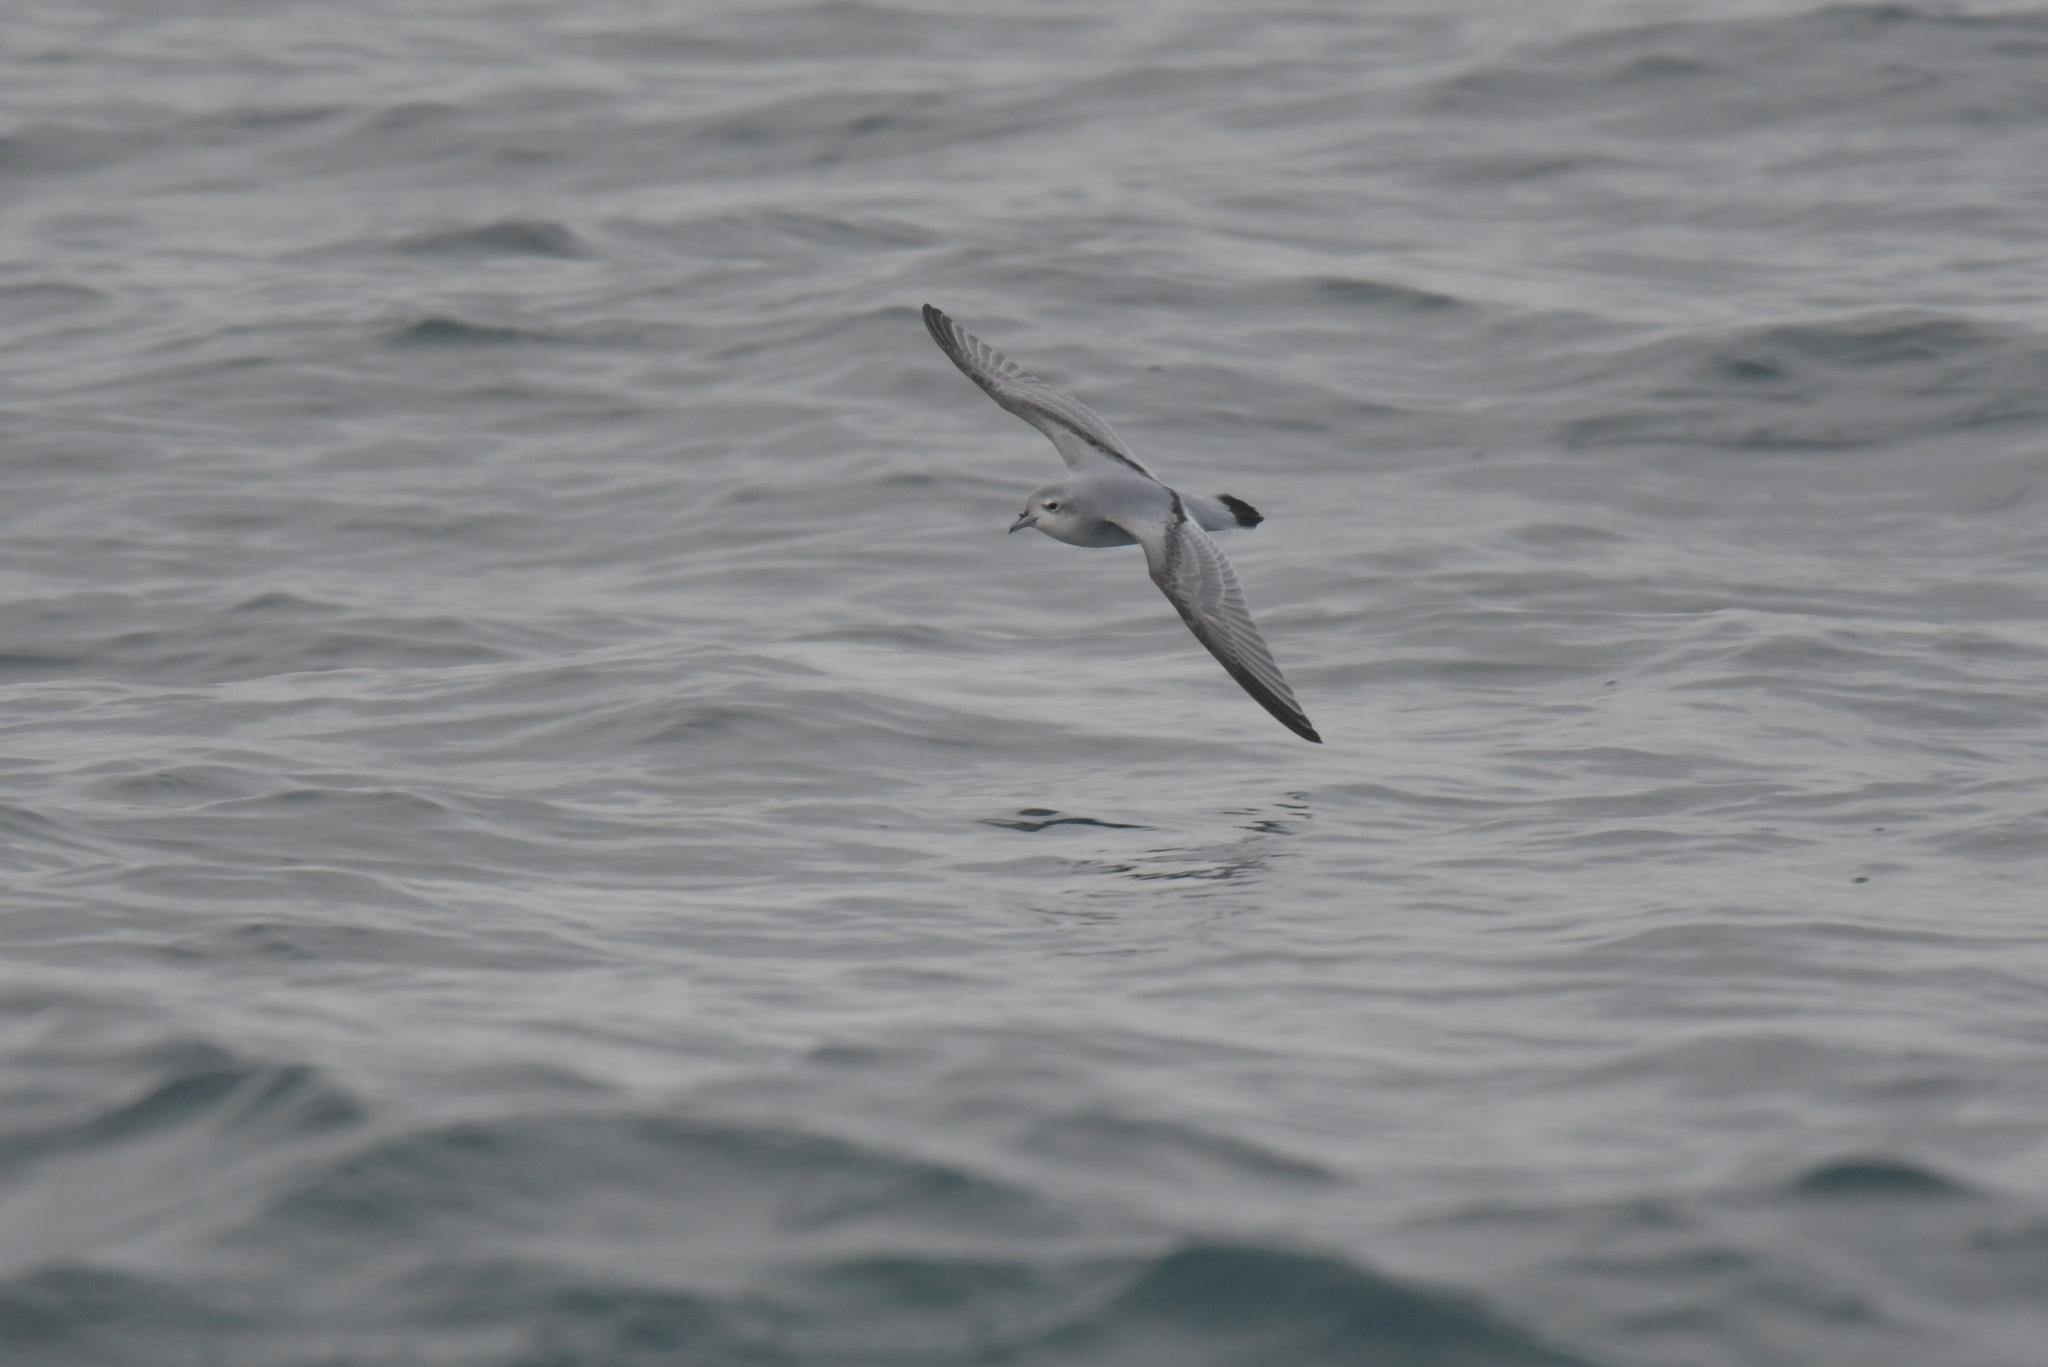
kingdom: Animalia
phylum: Chordata
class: Aves
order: Procellariiformes
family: Procellariidae
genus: Pachyptila
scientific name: Pachyptila turtur
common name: Fairy prion
